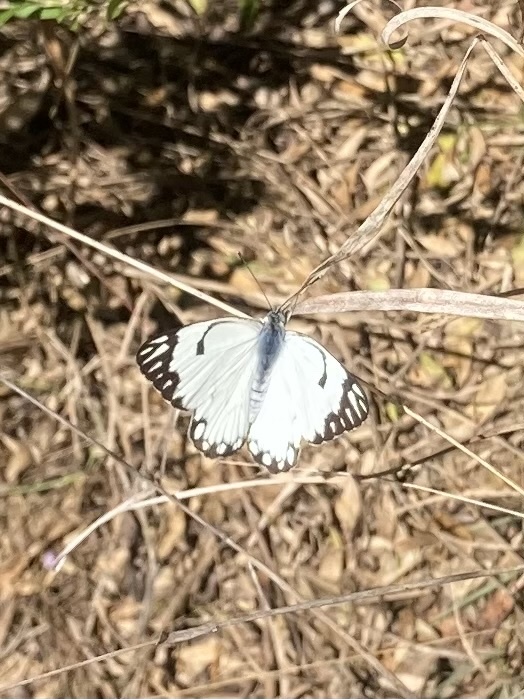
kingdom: Animalia
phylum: Arthropoda
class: Insecta
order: Lepidoptera
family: Pieridae
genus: Belenois
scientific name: Belenois aurota
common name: Brown-veined white
